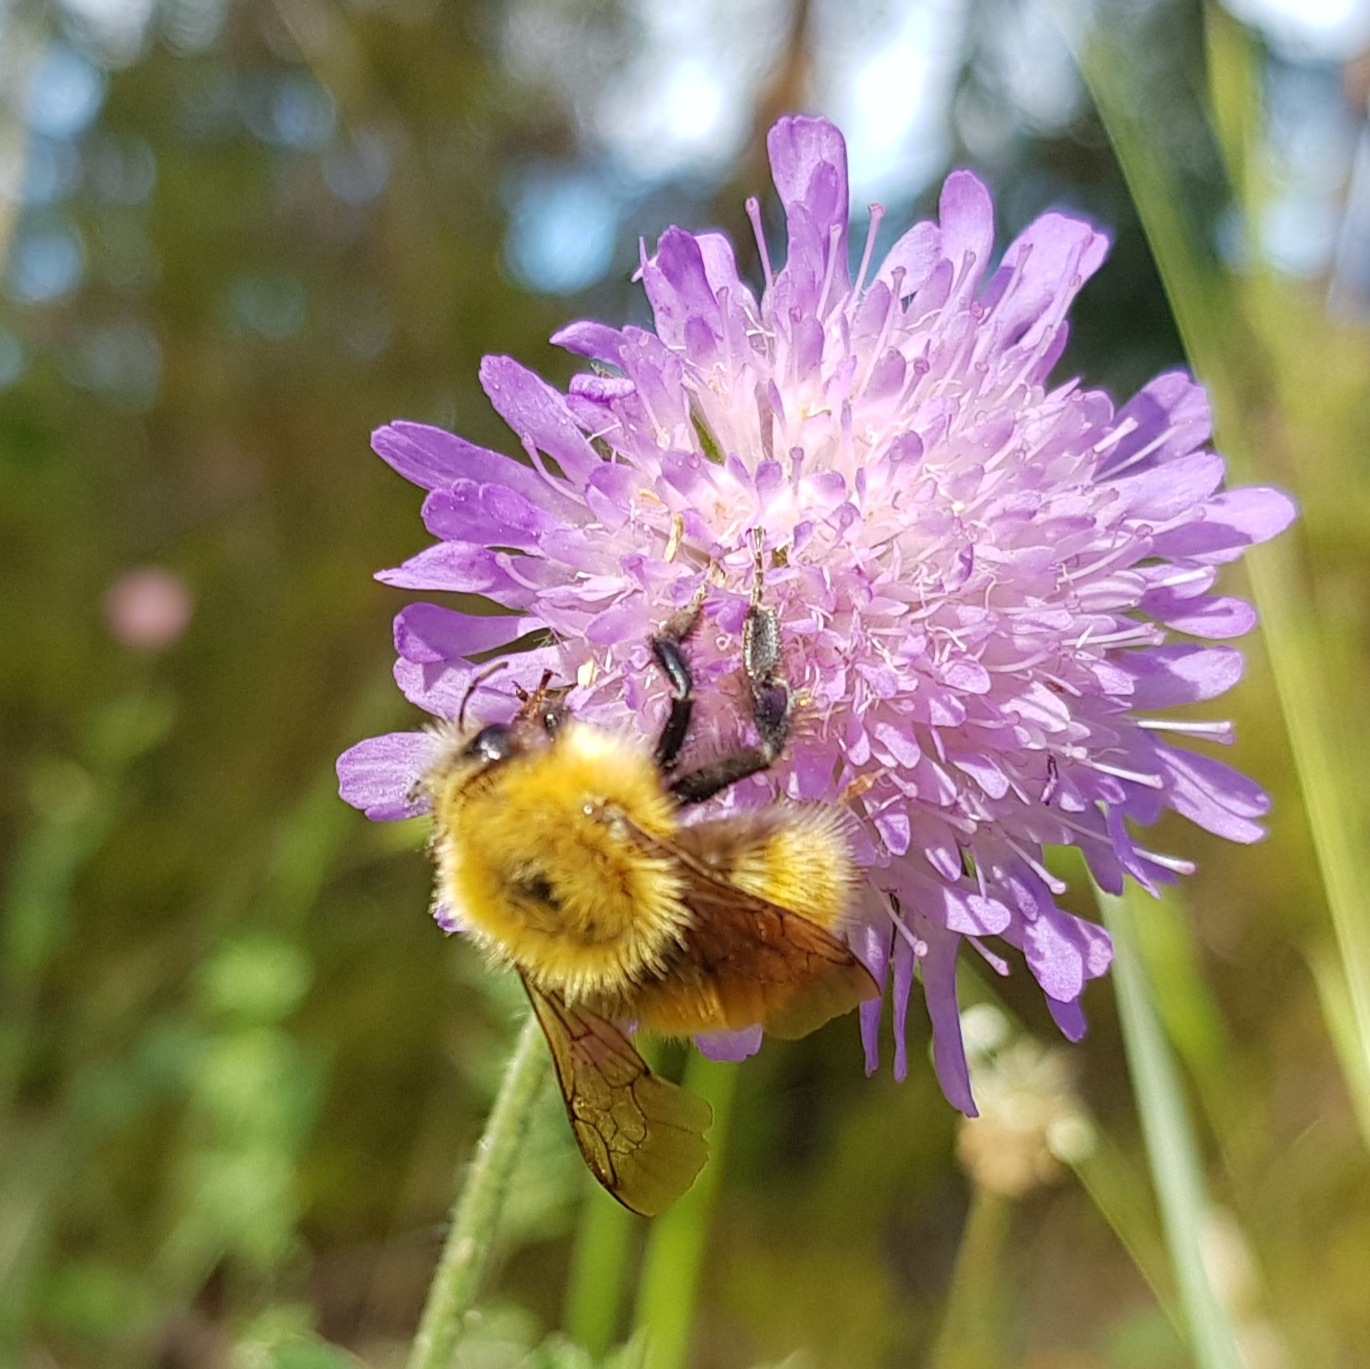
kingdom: Animalia
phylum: Arthropoda
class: Insecta
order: Hymenoptera
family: Apidae
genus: Bombus
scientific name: Bombus pascuorum
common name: Common carder bee
